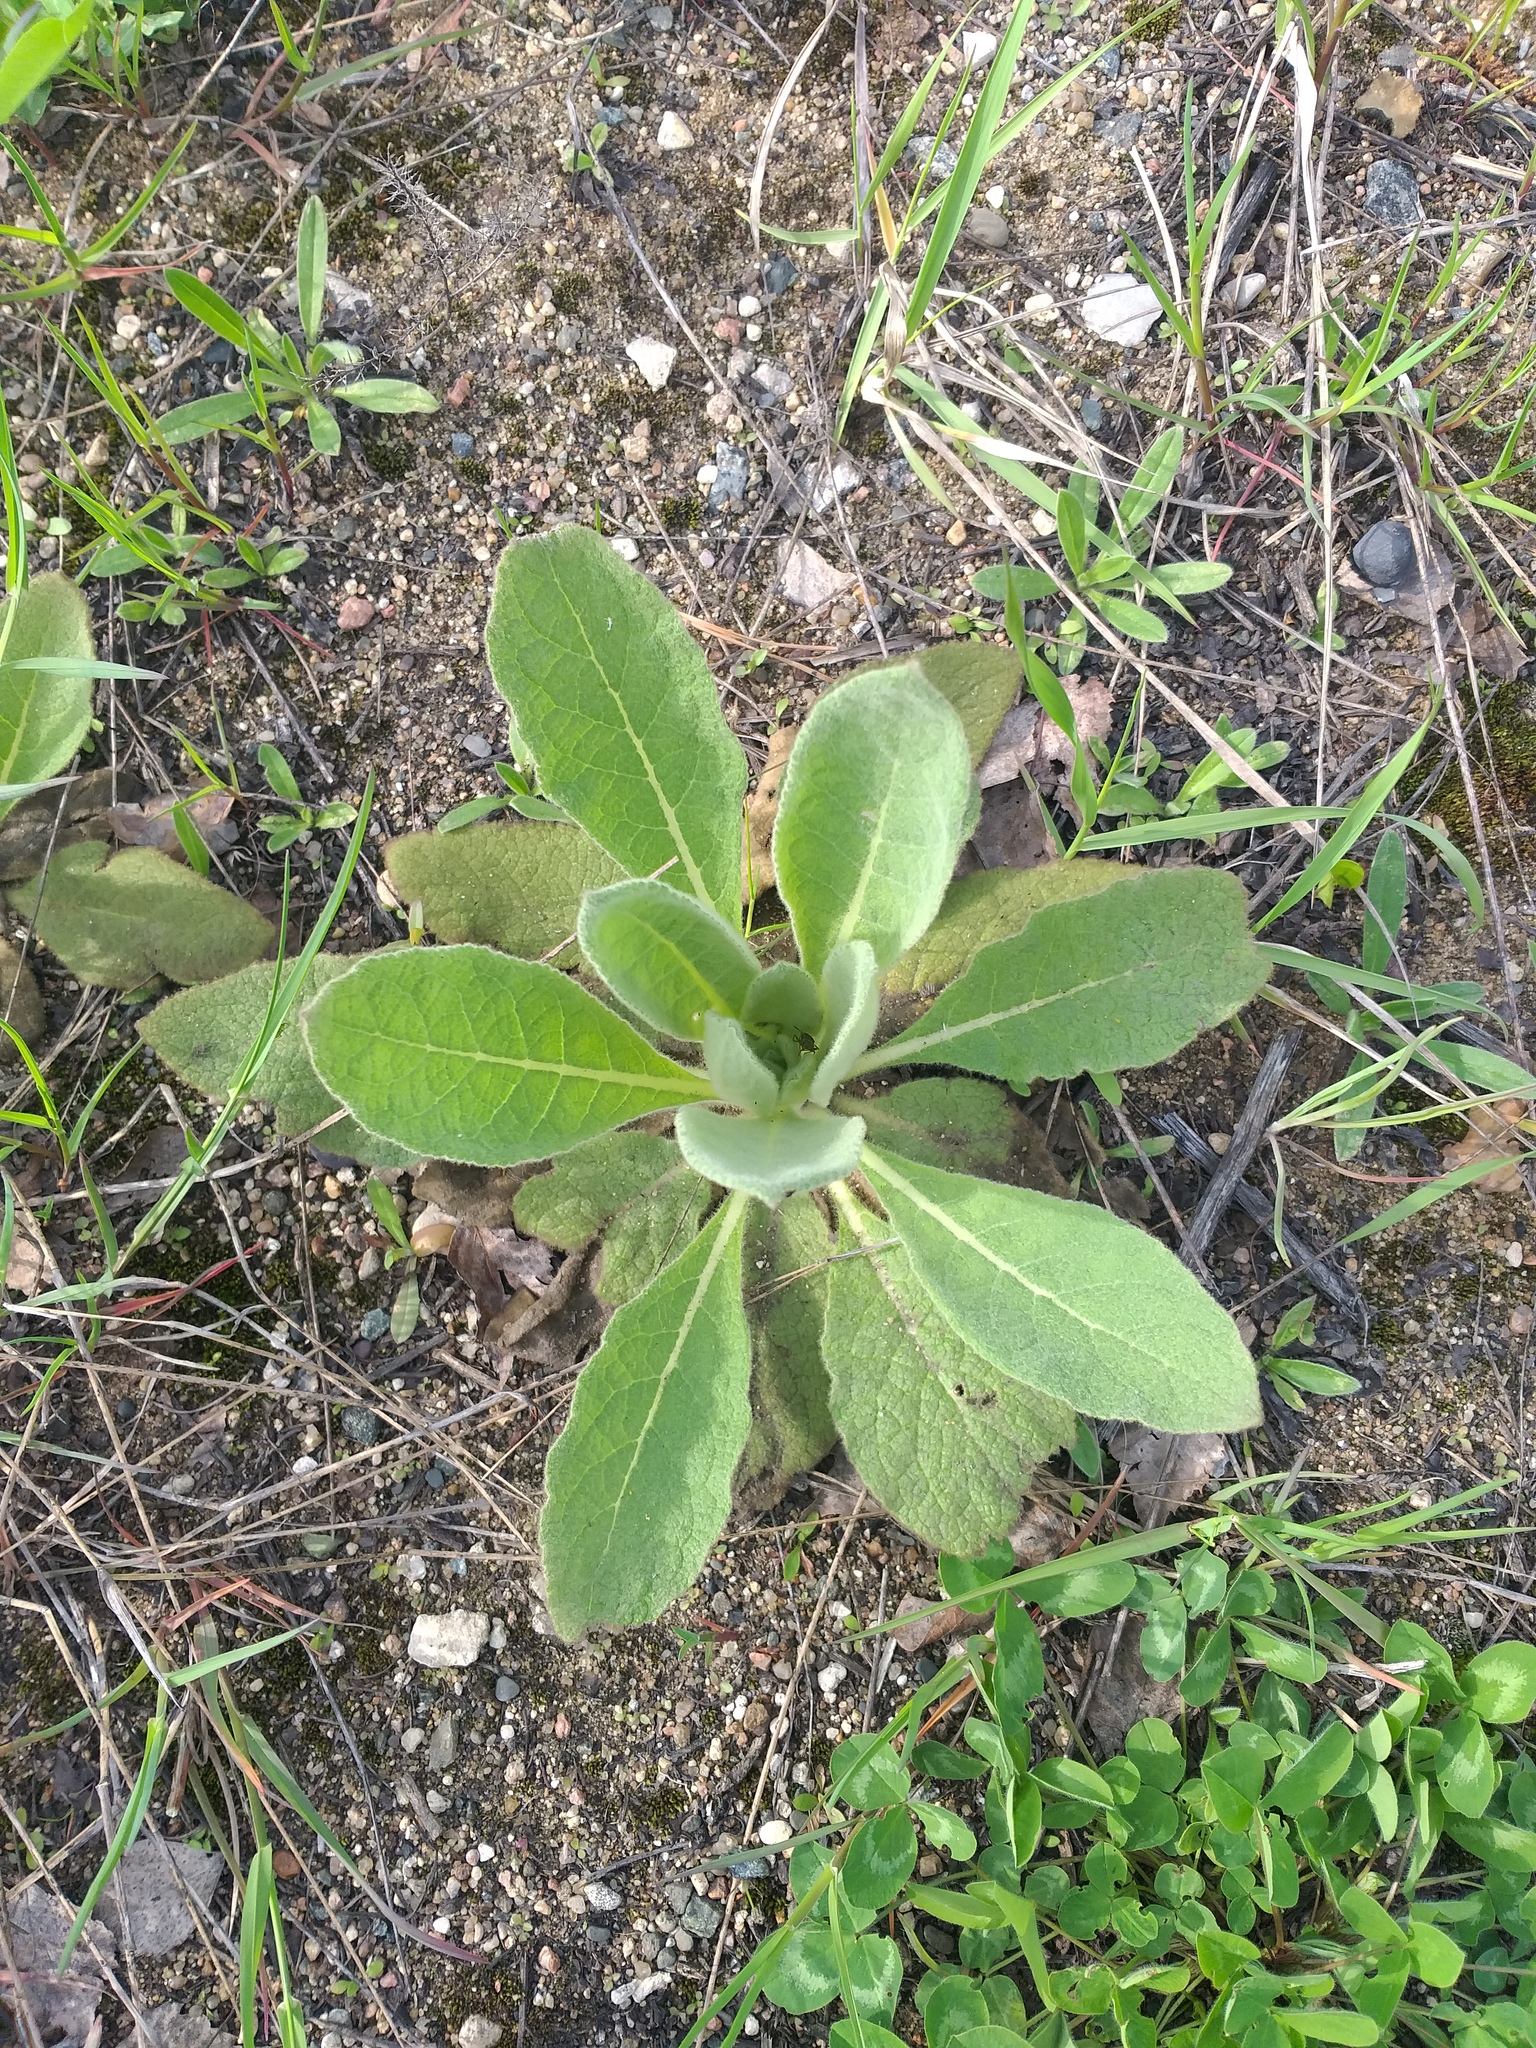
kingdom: Plantae
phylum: Tracheophyta
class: Magnoliopsida
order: Lamiales
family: Scrophulariaceae
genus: Verbascum
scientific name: Verbascum thapsus
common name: Common mullein
